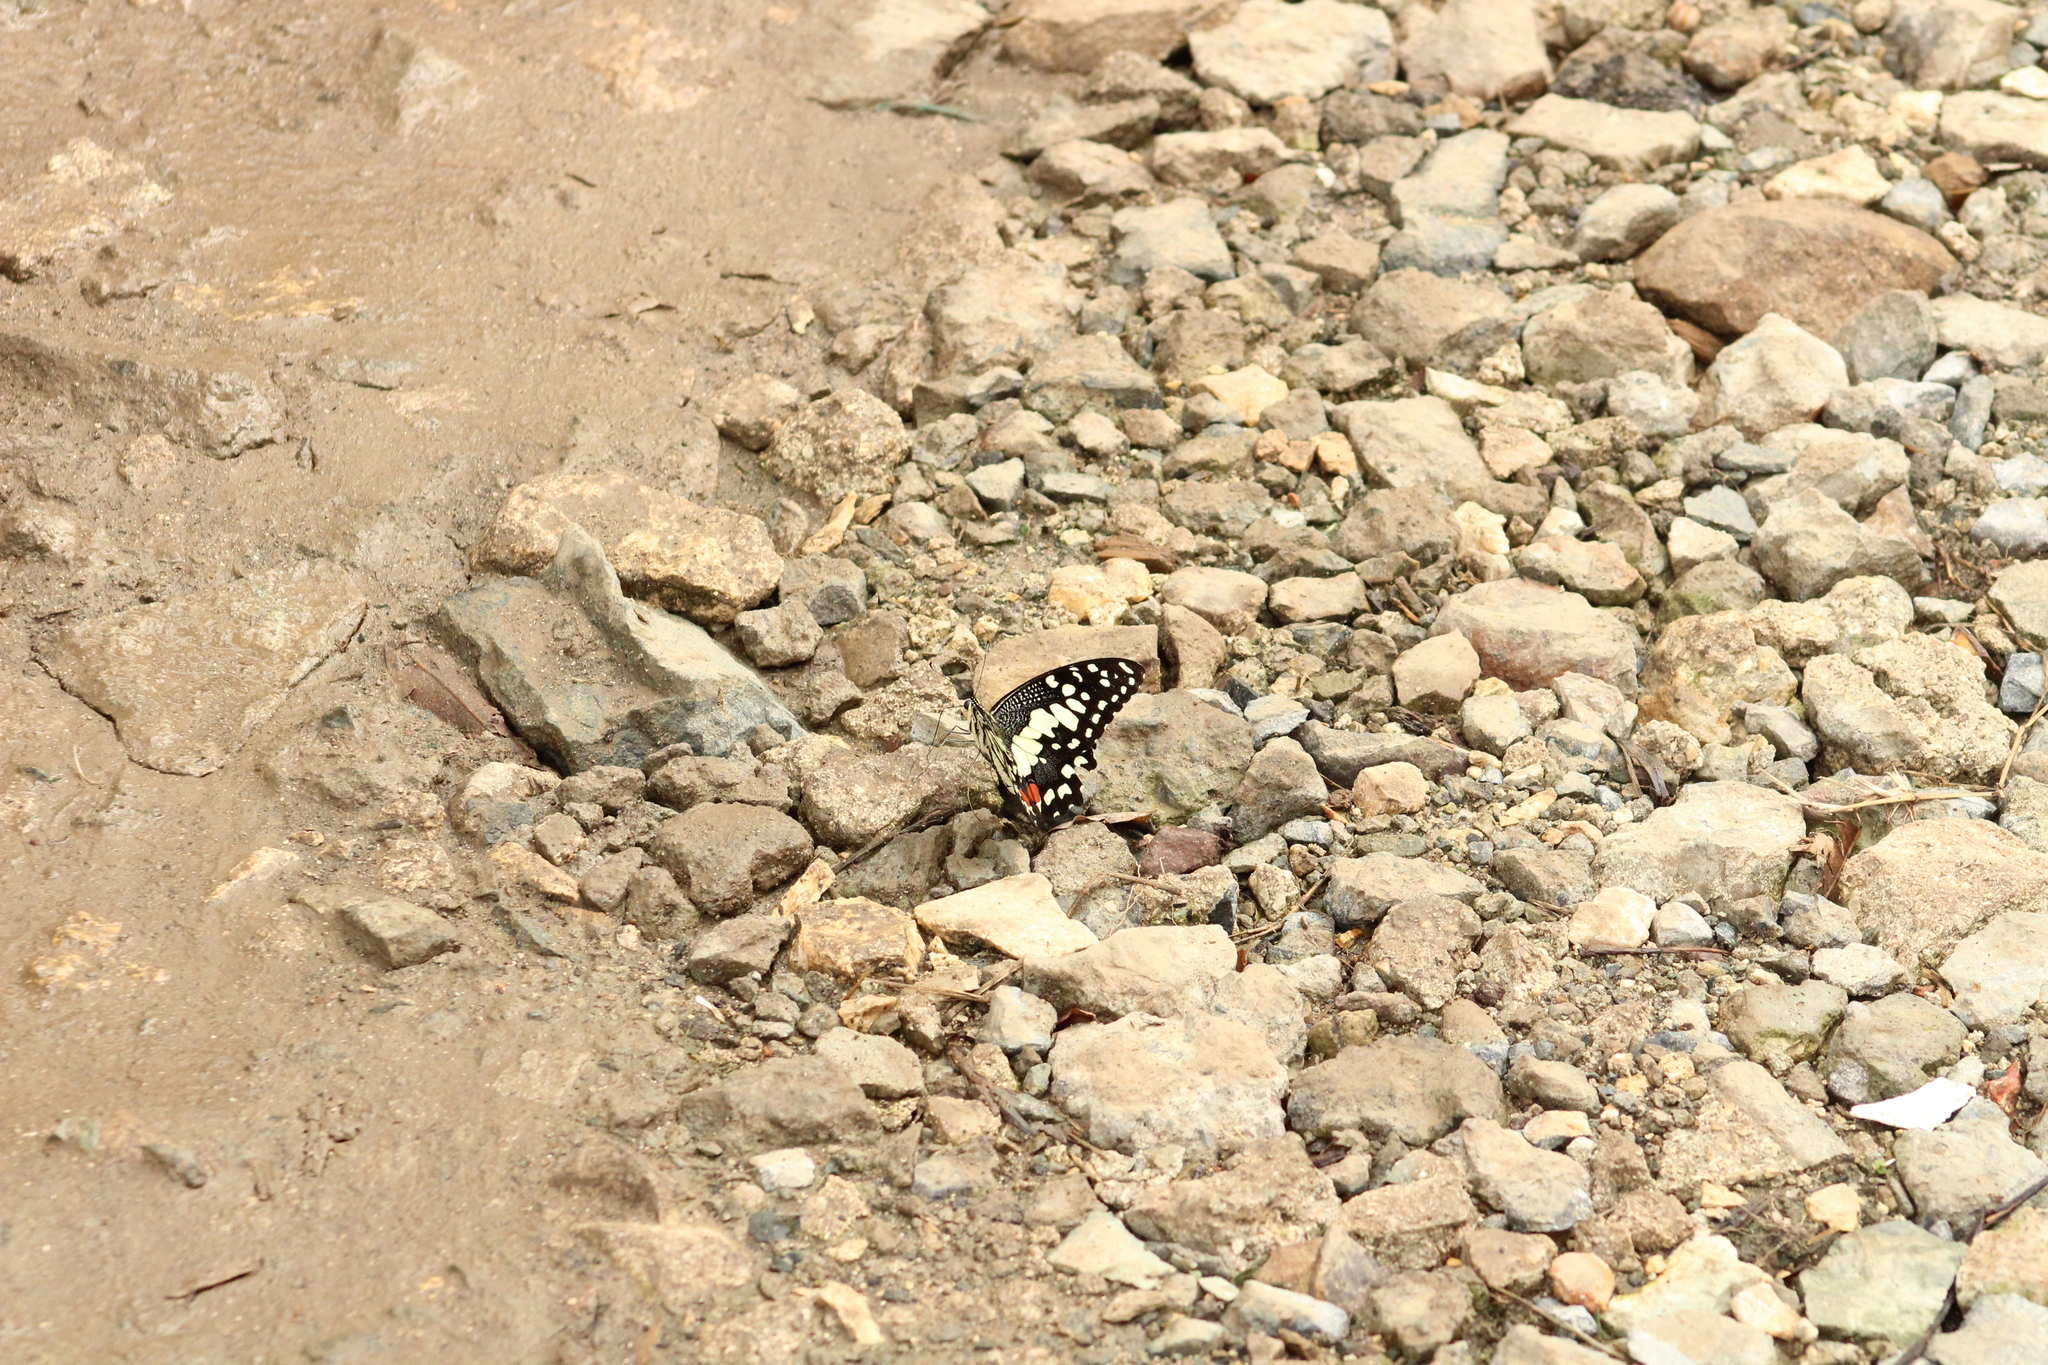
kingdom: Animalia
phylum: Arthropoda
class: Insecta
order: Lepidoptera
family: Papilionidae
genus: Papilio
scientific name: Papilio demoleus
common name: Lime butterfly
